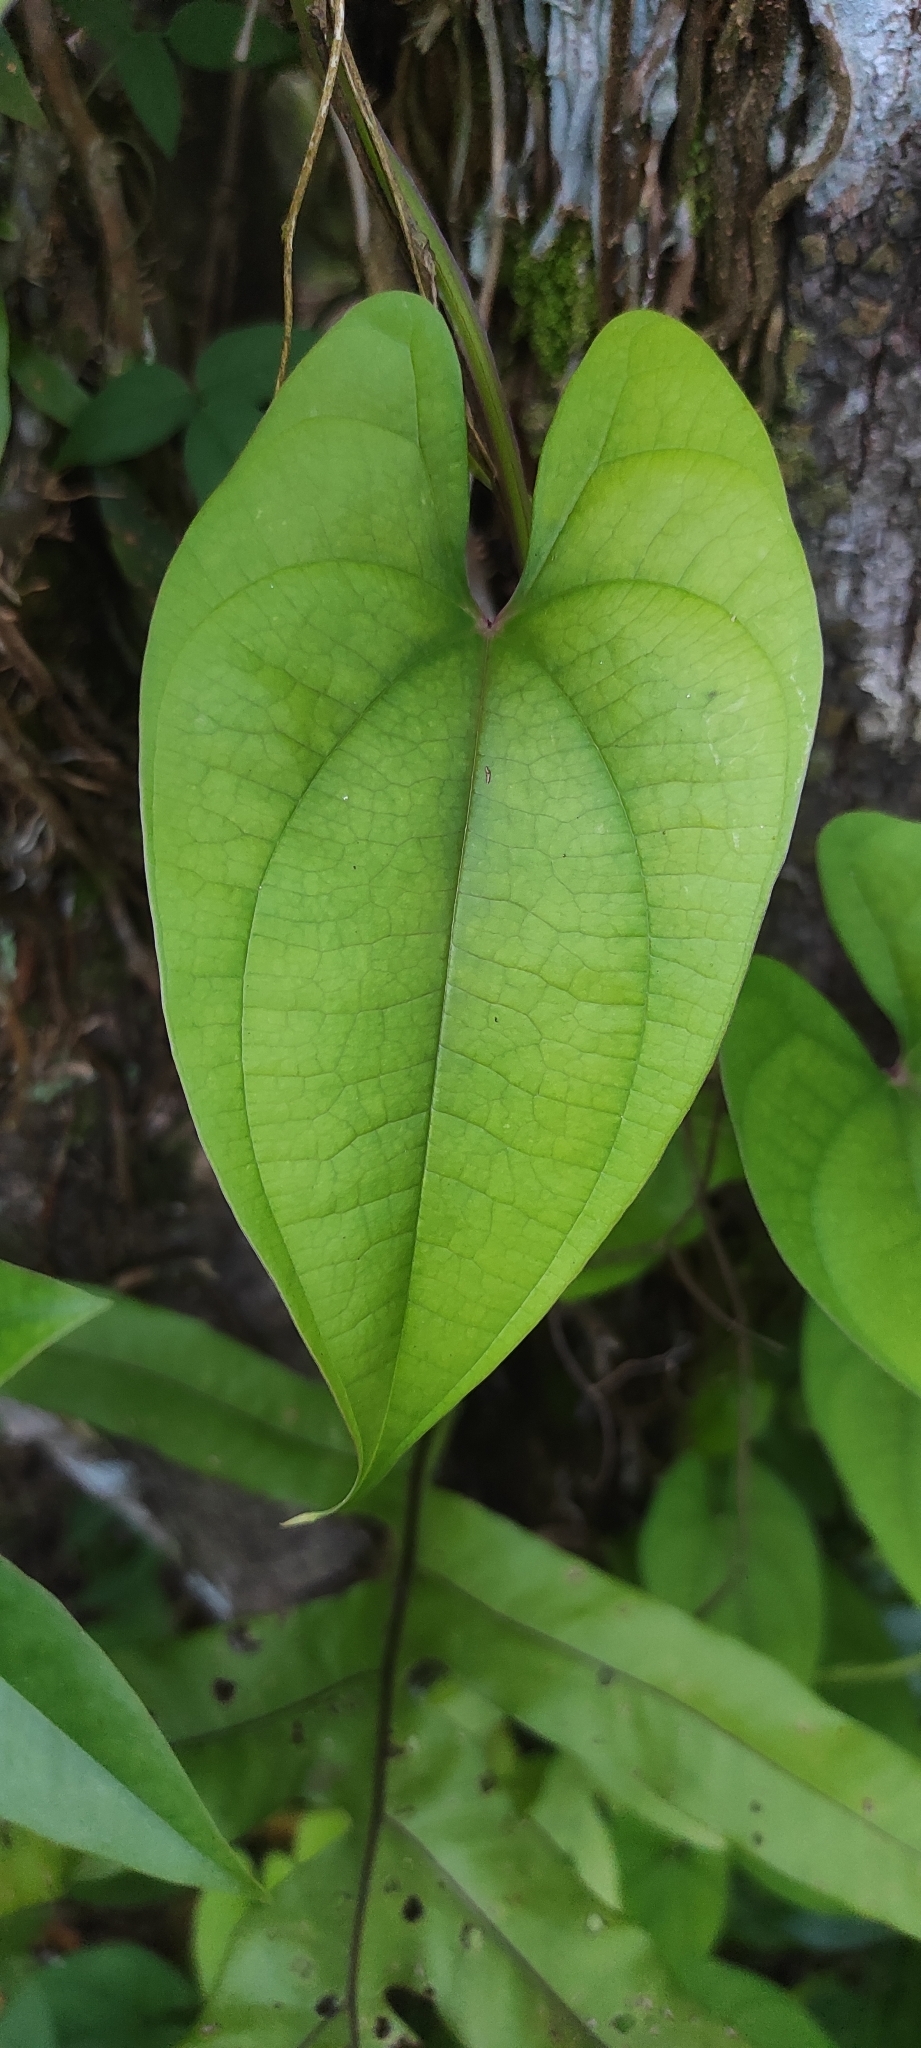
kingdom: Plantae
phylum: Tracheophyta
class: Liliopsida
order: Dioscoreales
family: Dioscoreaceae
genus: Dioscorea
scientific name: Dioscorea alata
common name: Water yam
